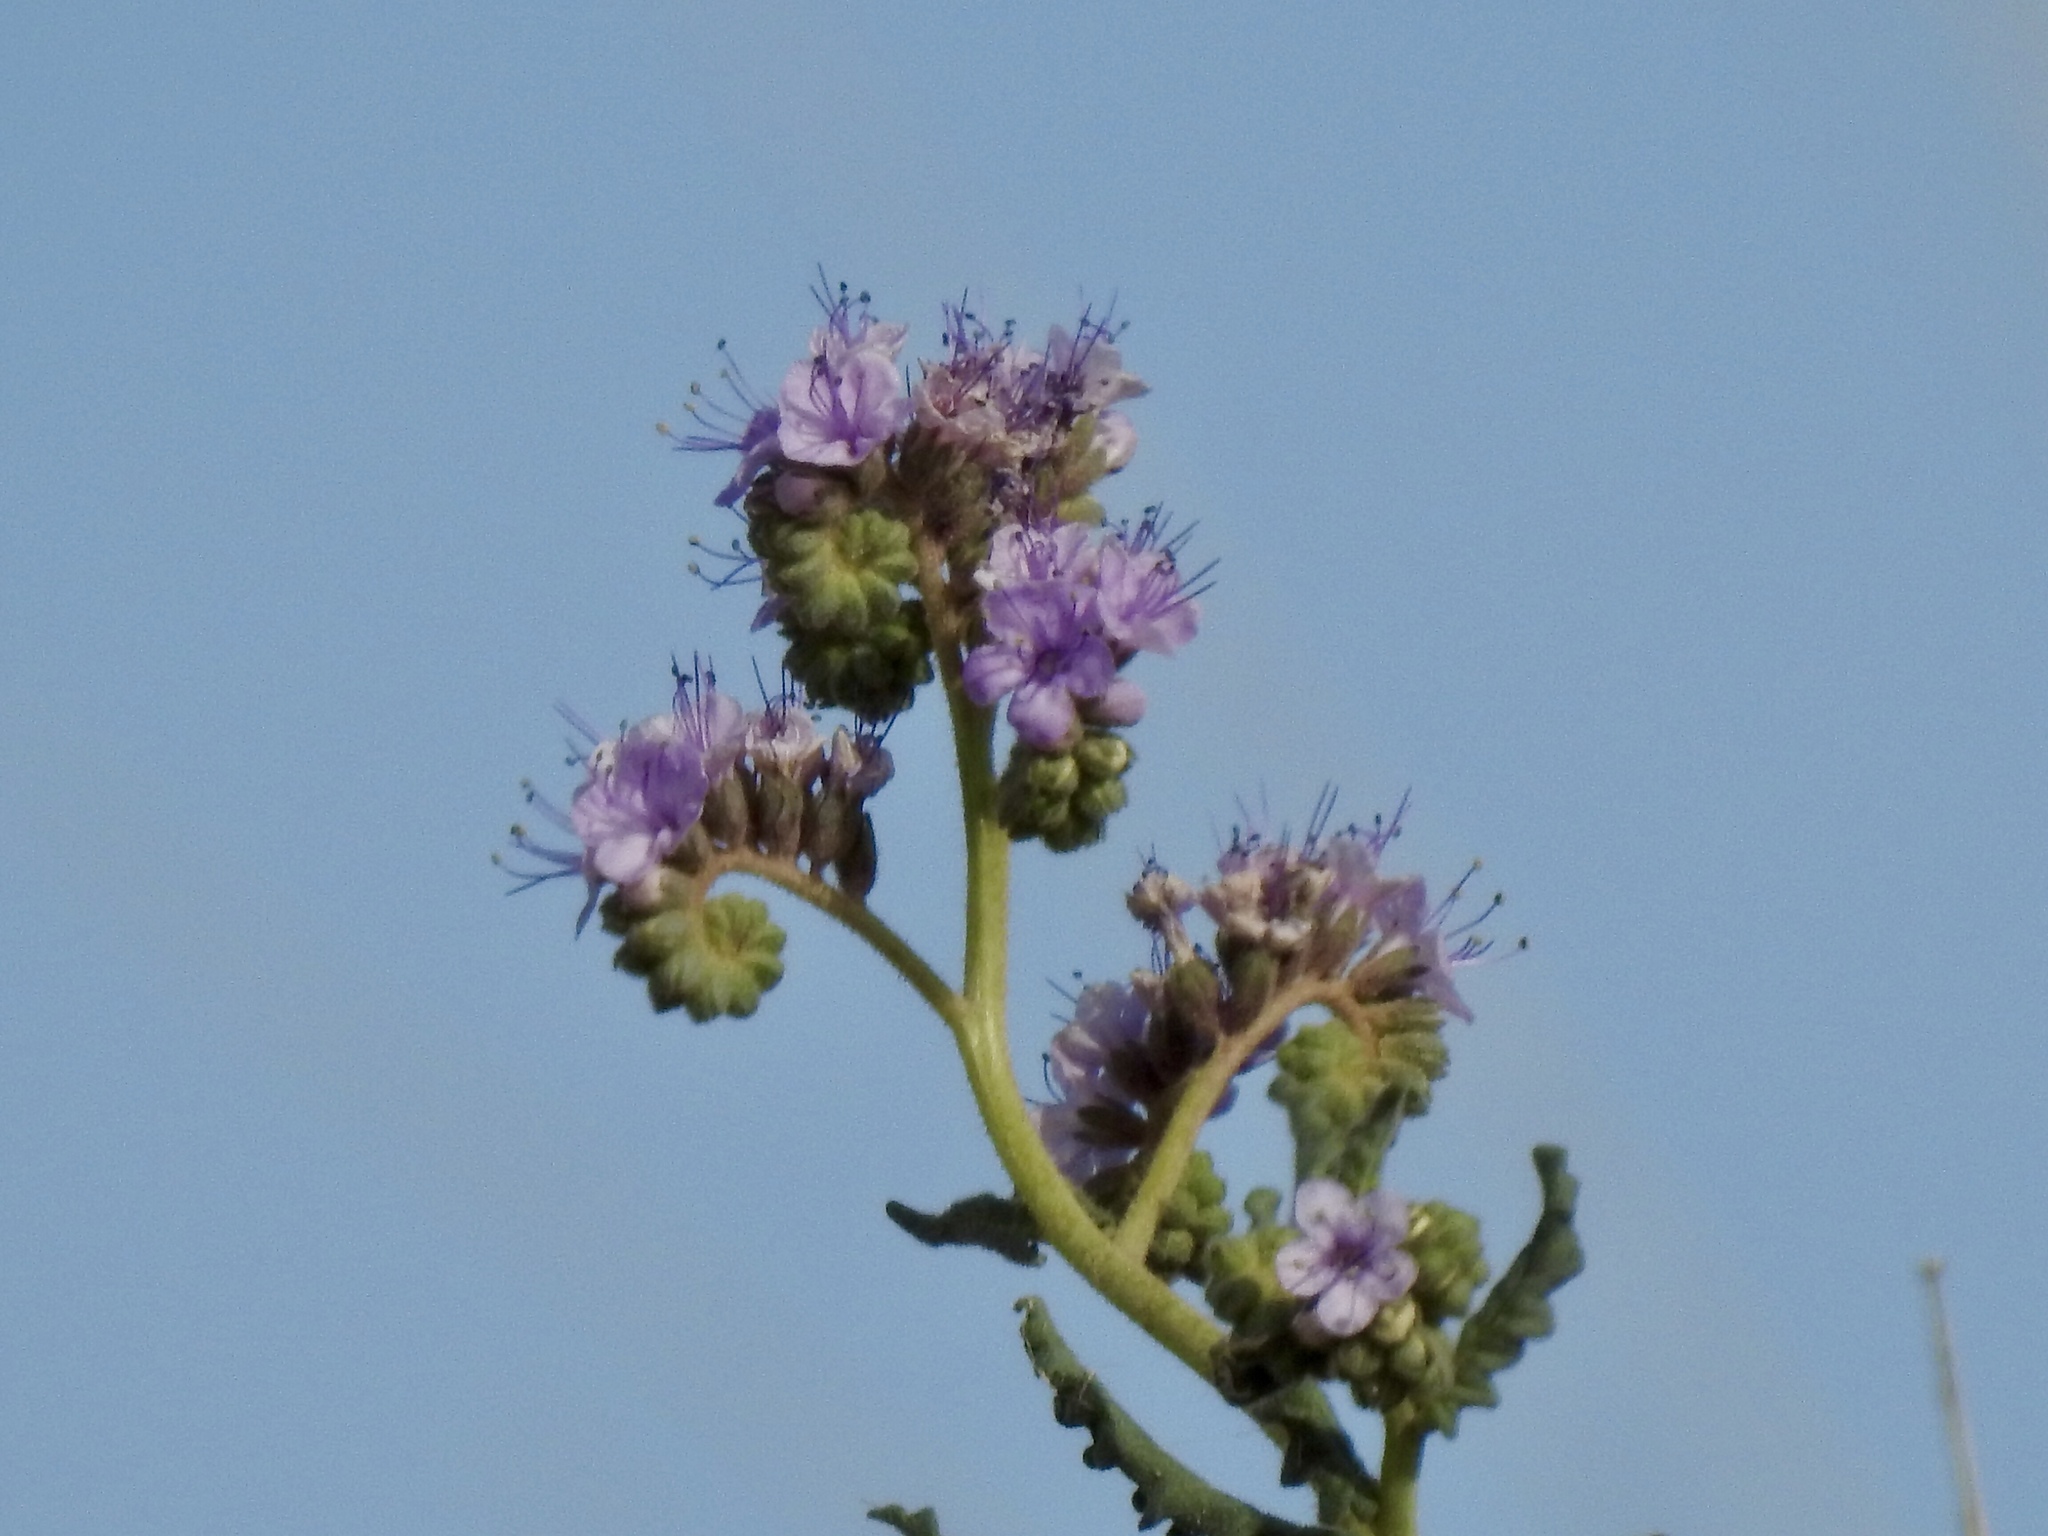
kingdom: Plantae
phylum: Tracheophyta
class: Magnoliopsida
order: Boraginales
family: Hydrophyllaceae
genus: Phacelia
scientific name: Phacelia integrifolia
